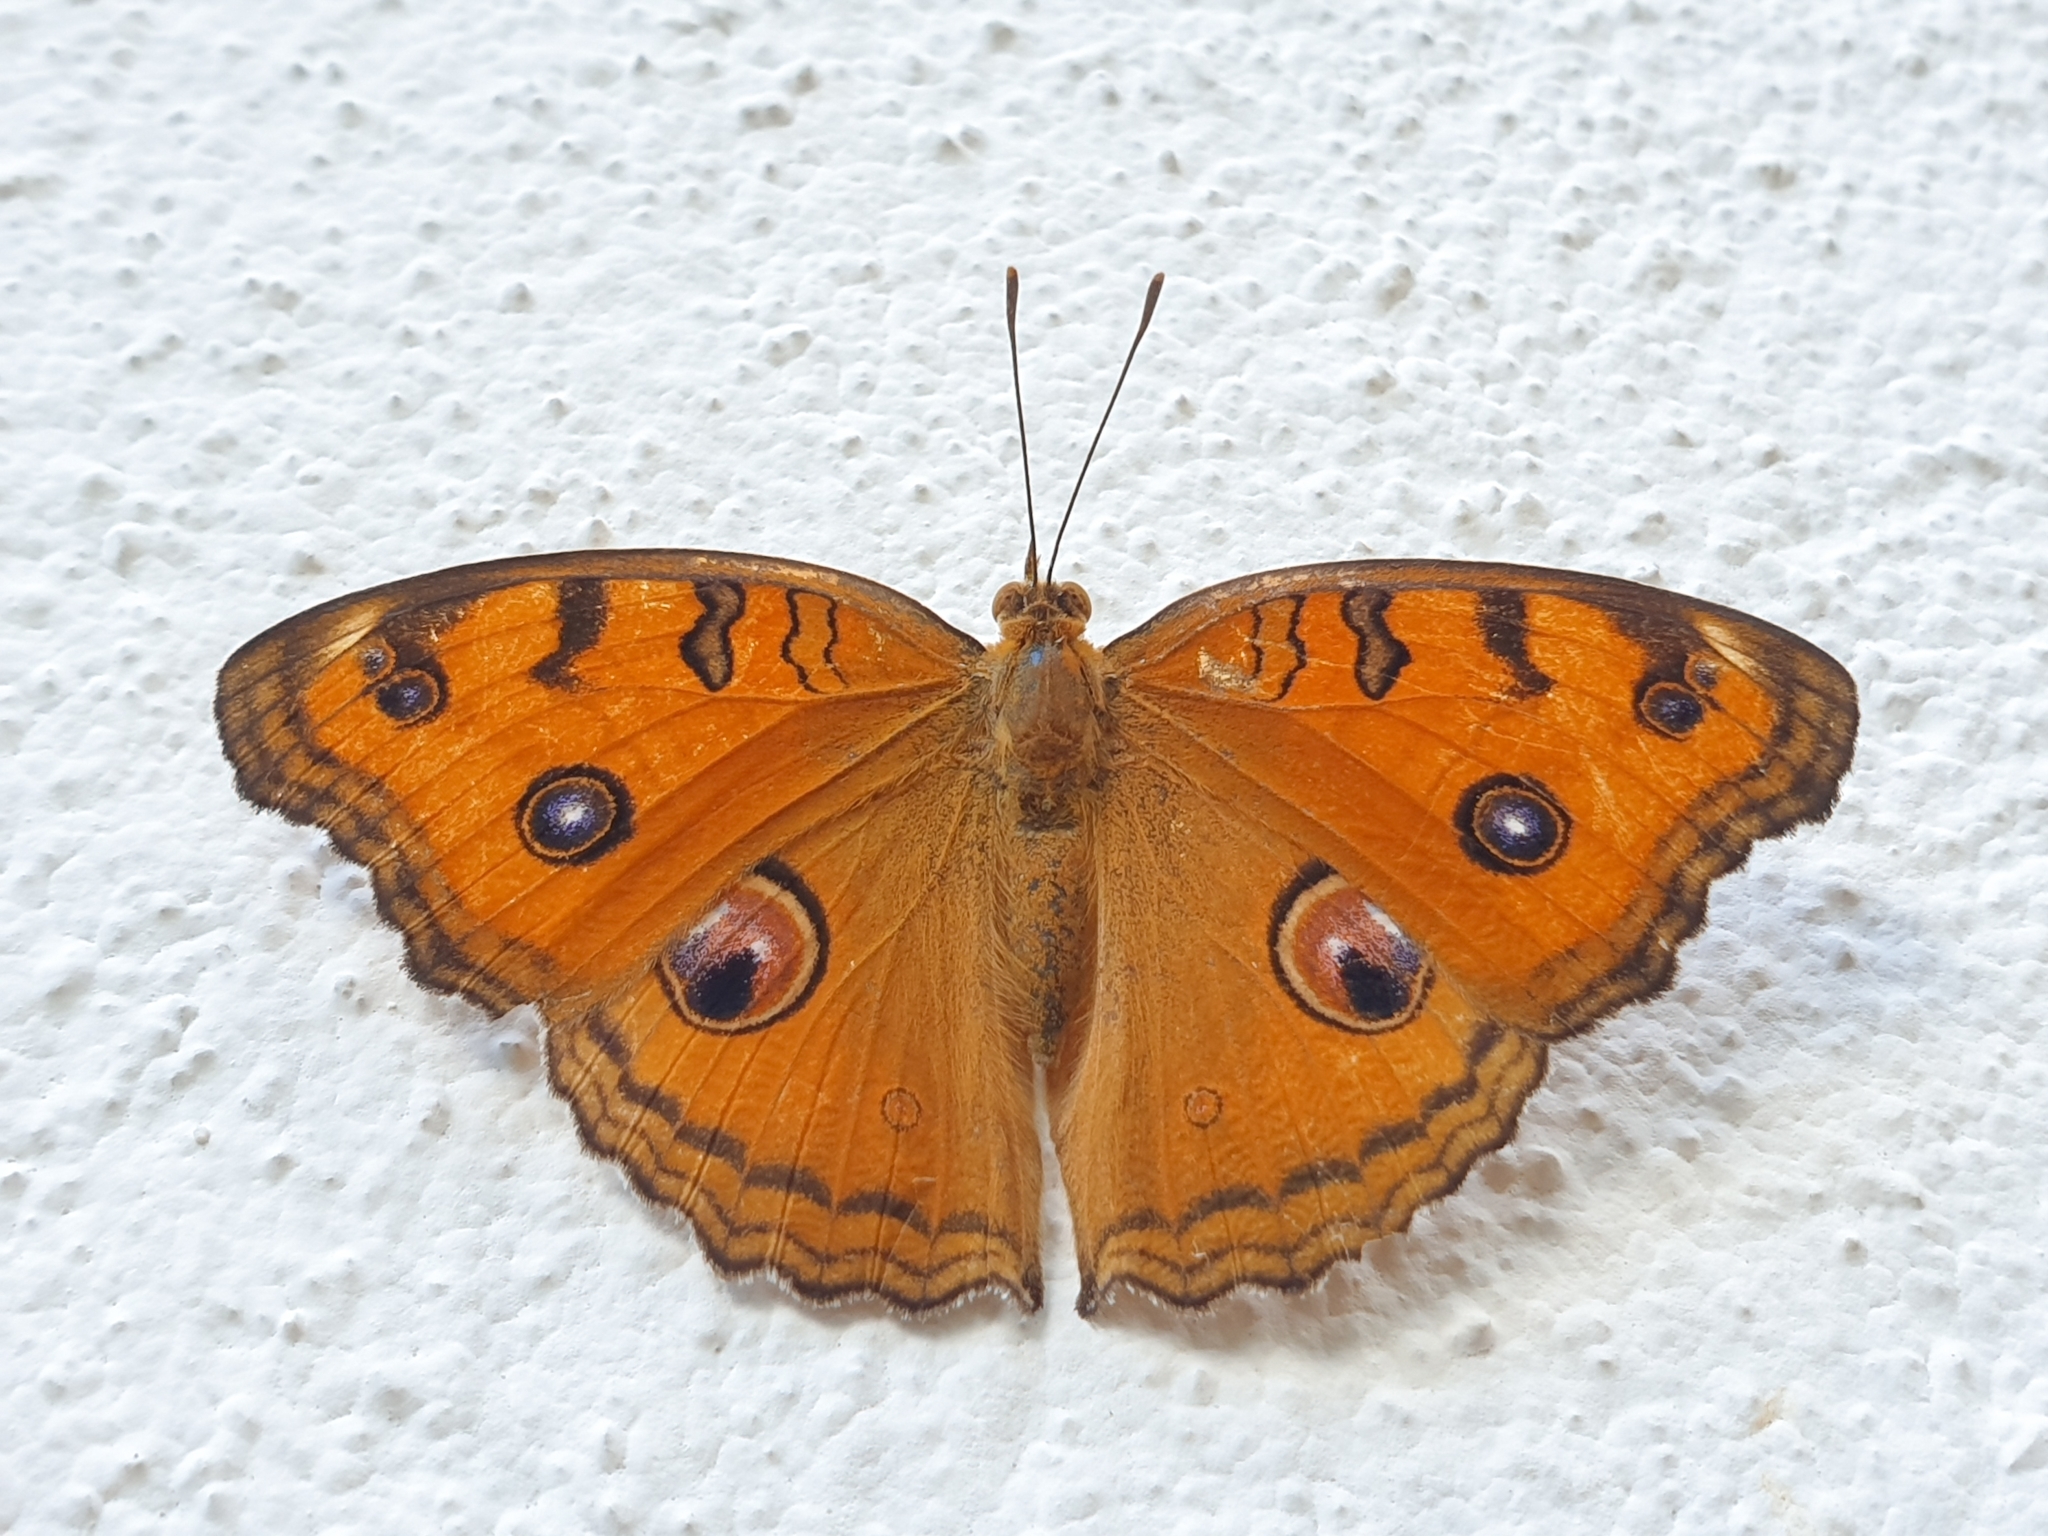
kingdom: Animalia
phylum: Arthropoda
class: Insecta
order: Lepidoptera
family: Nymphalidae
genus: Junonia
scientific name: Junonia almana
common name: Peacock pansy
